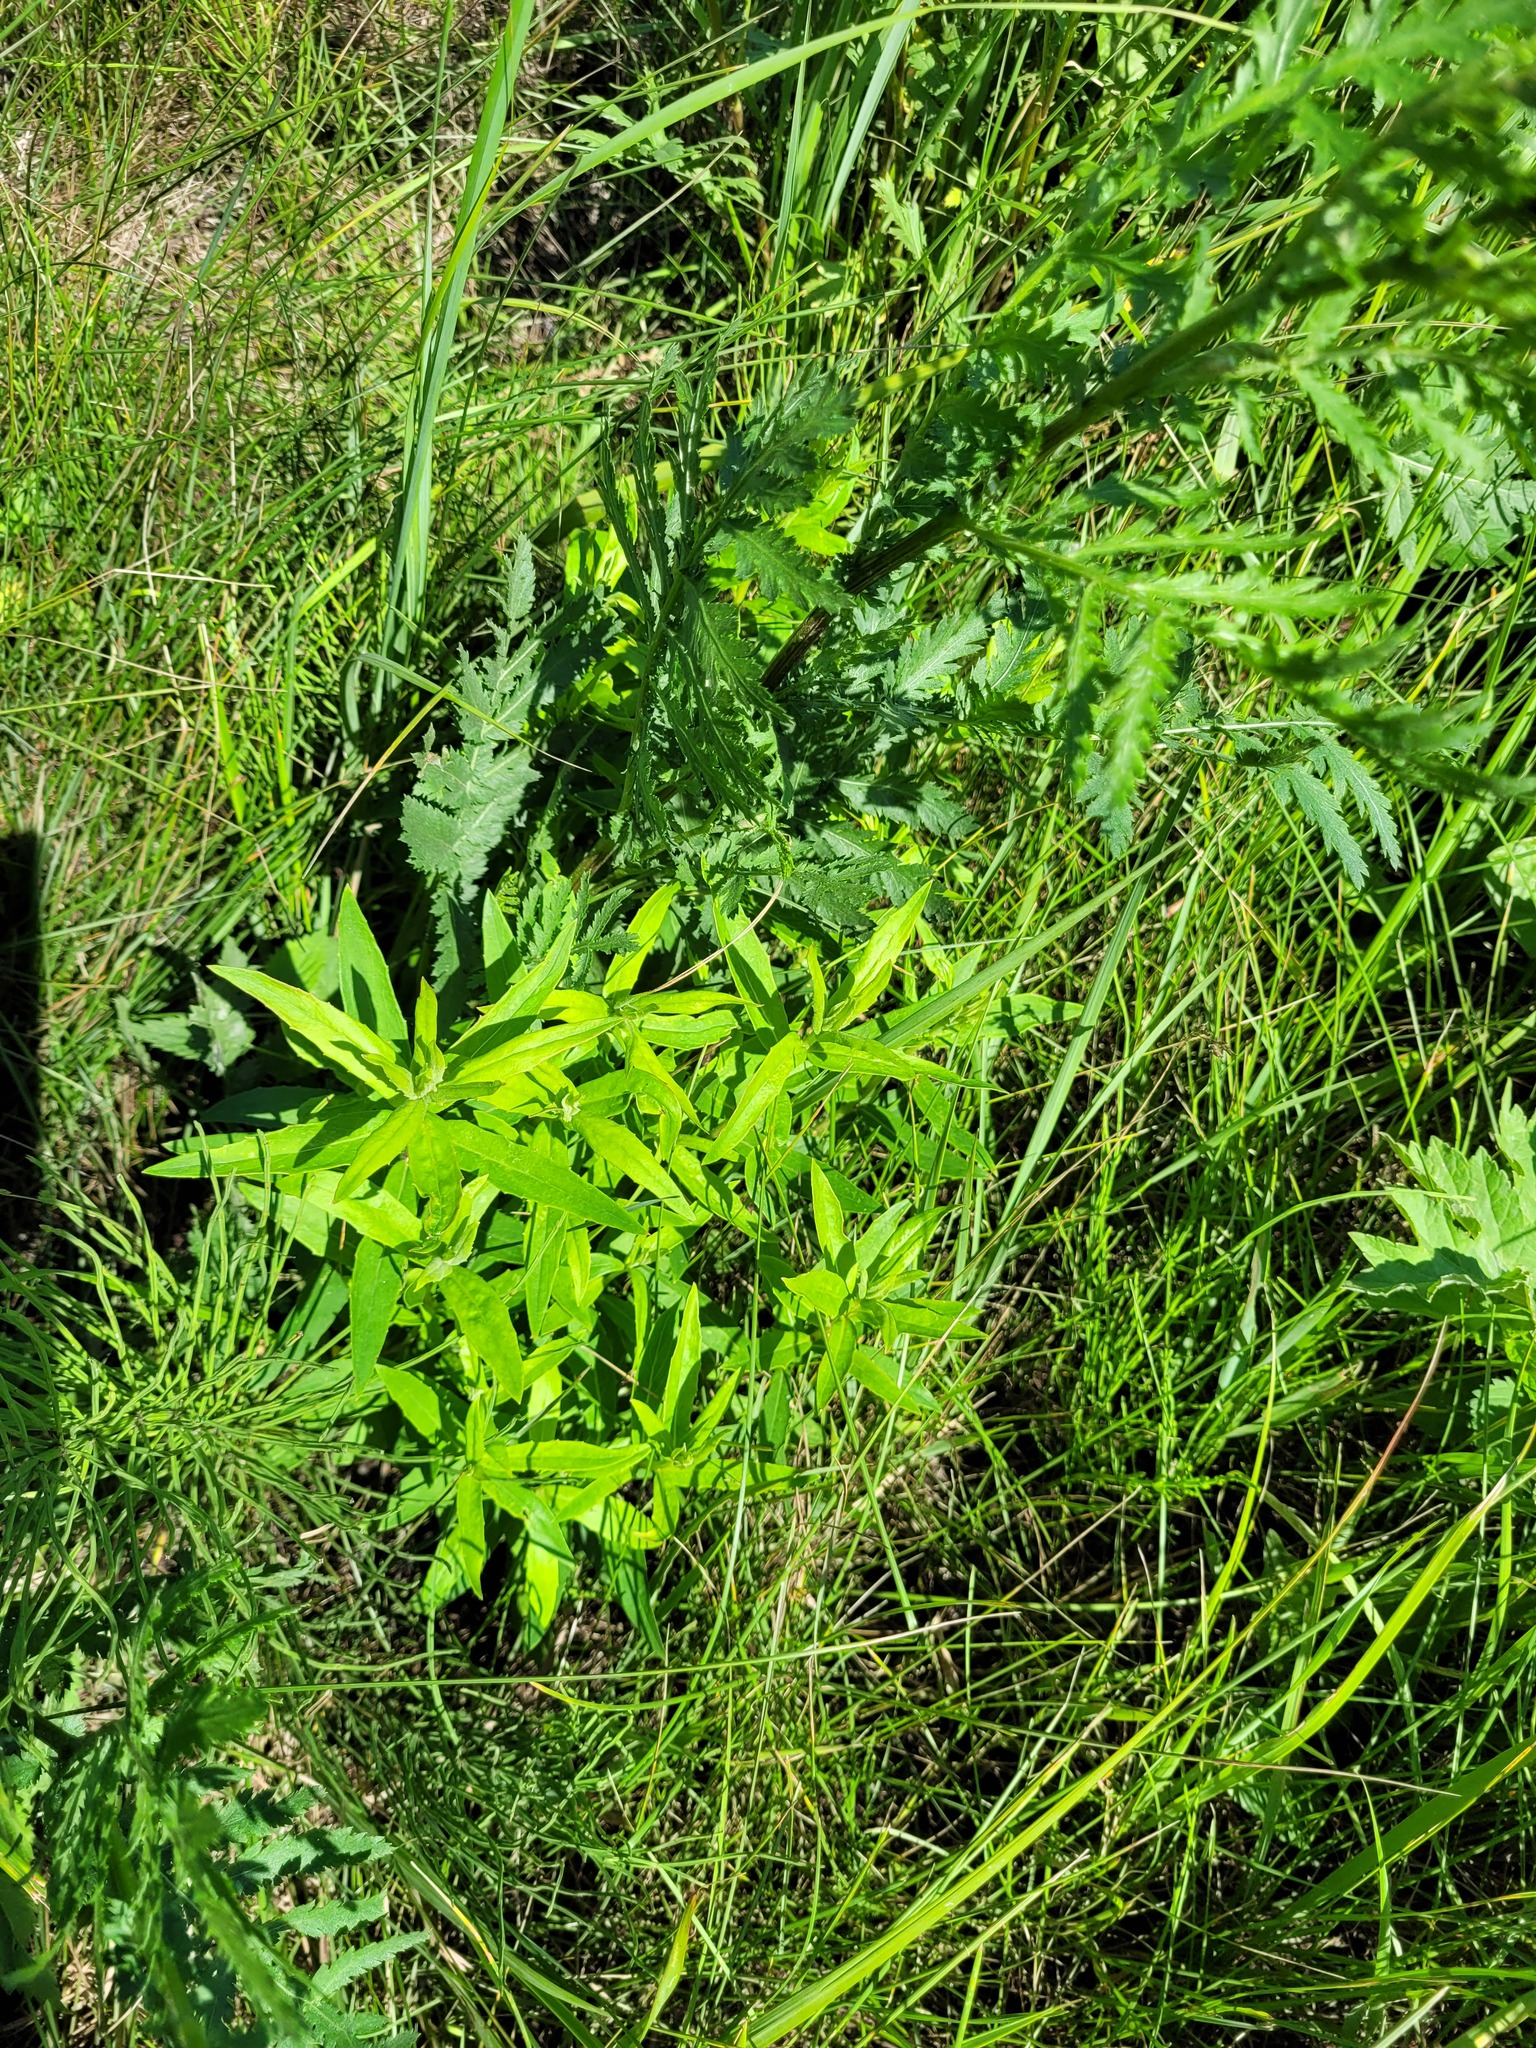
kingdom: Plantae
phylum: Tracheophyta
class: Magnoliopsida
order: Asterales
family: Asteraceae
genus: Hieracium
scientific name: Hieracium umbellatum
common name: Northern hawkweed
